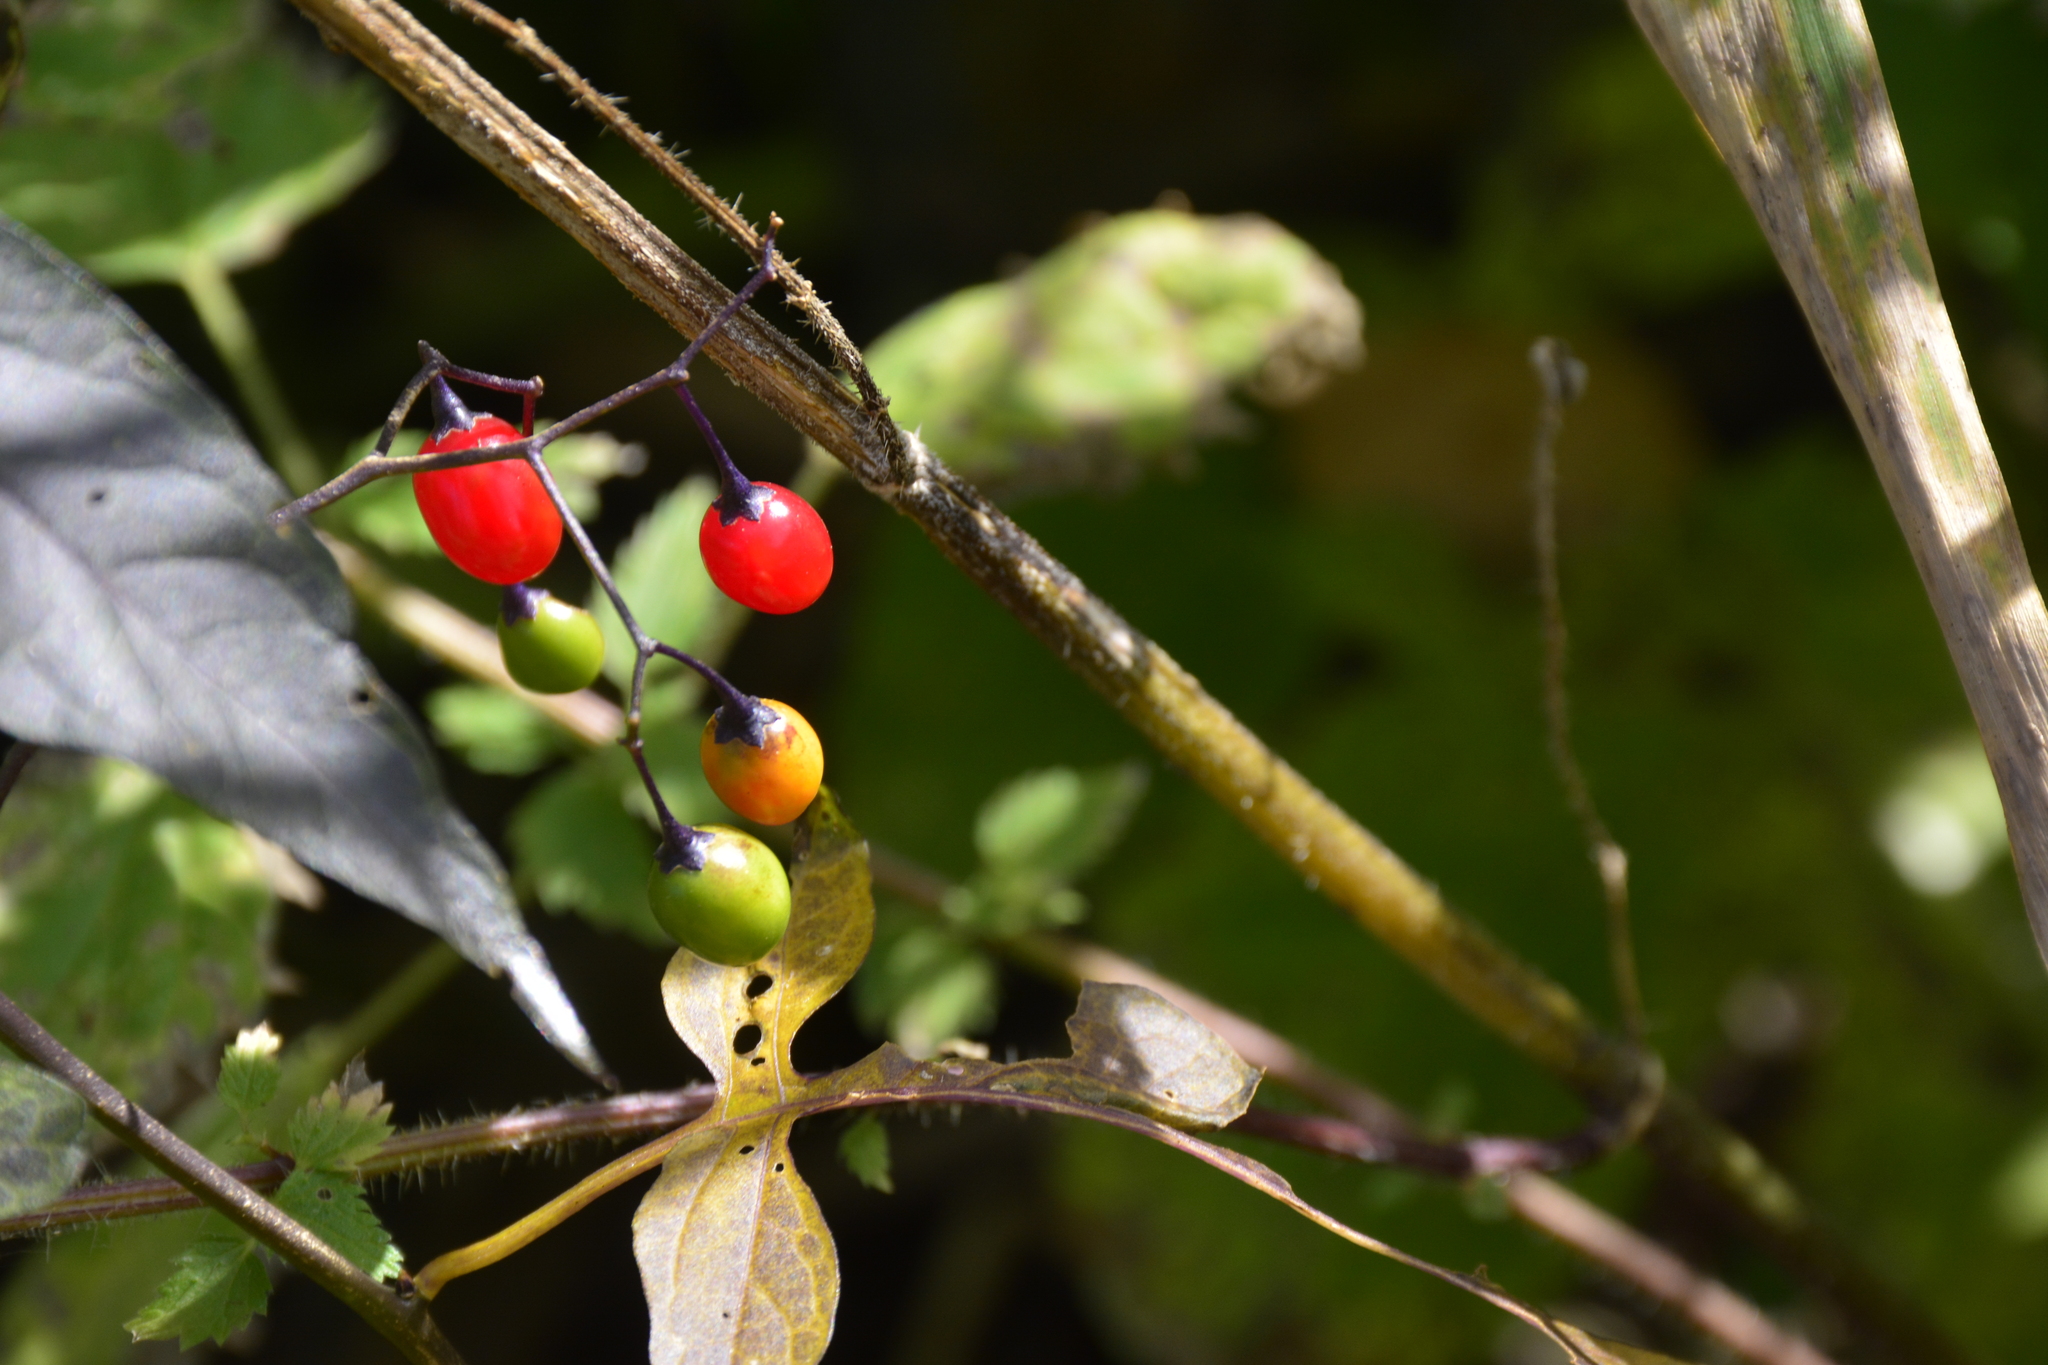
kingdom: Plantae
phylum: Tracheophyta
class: Magnoliopsida
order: Solanales
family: Solanaceae
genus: Solanum
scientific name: Solanum dulcamara
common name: Climbing nightshade
